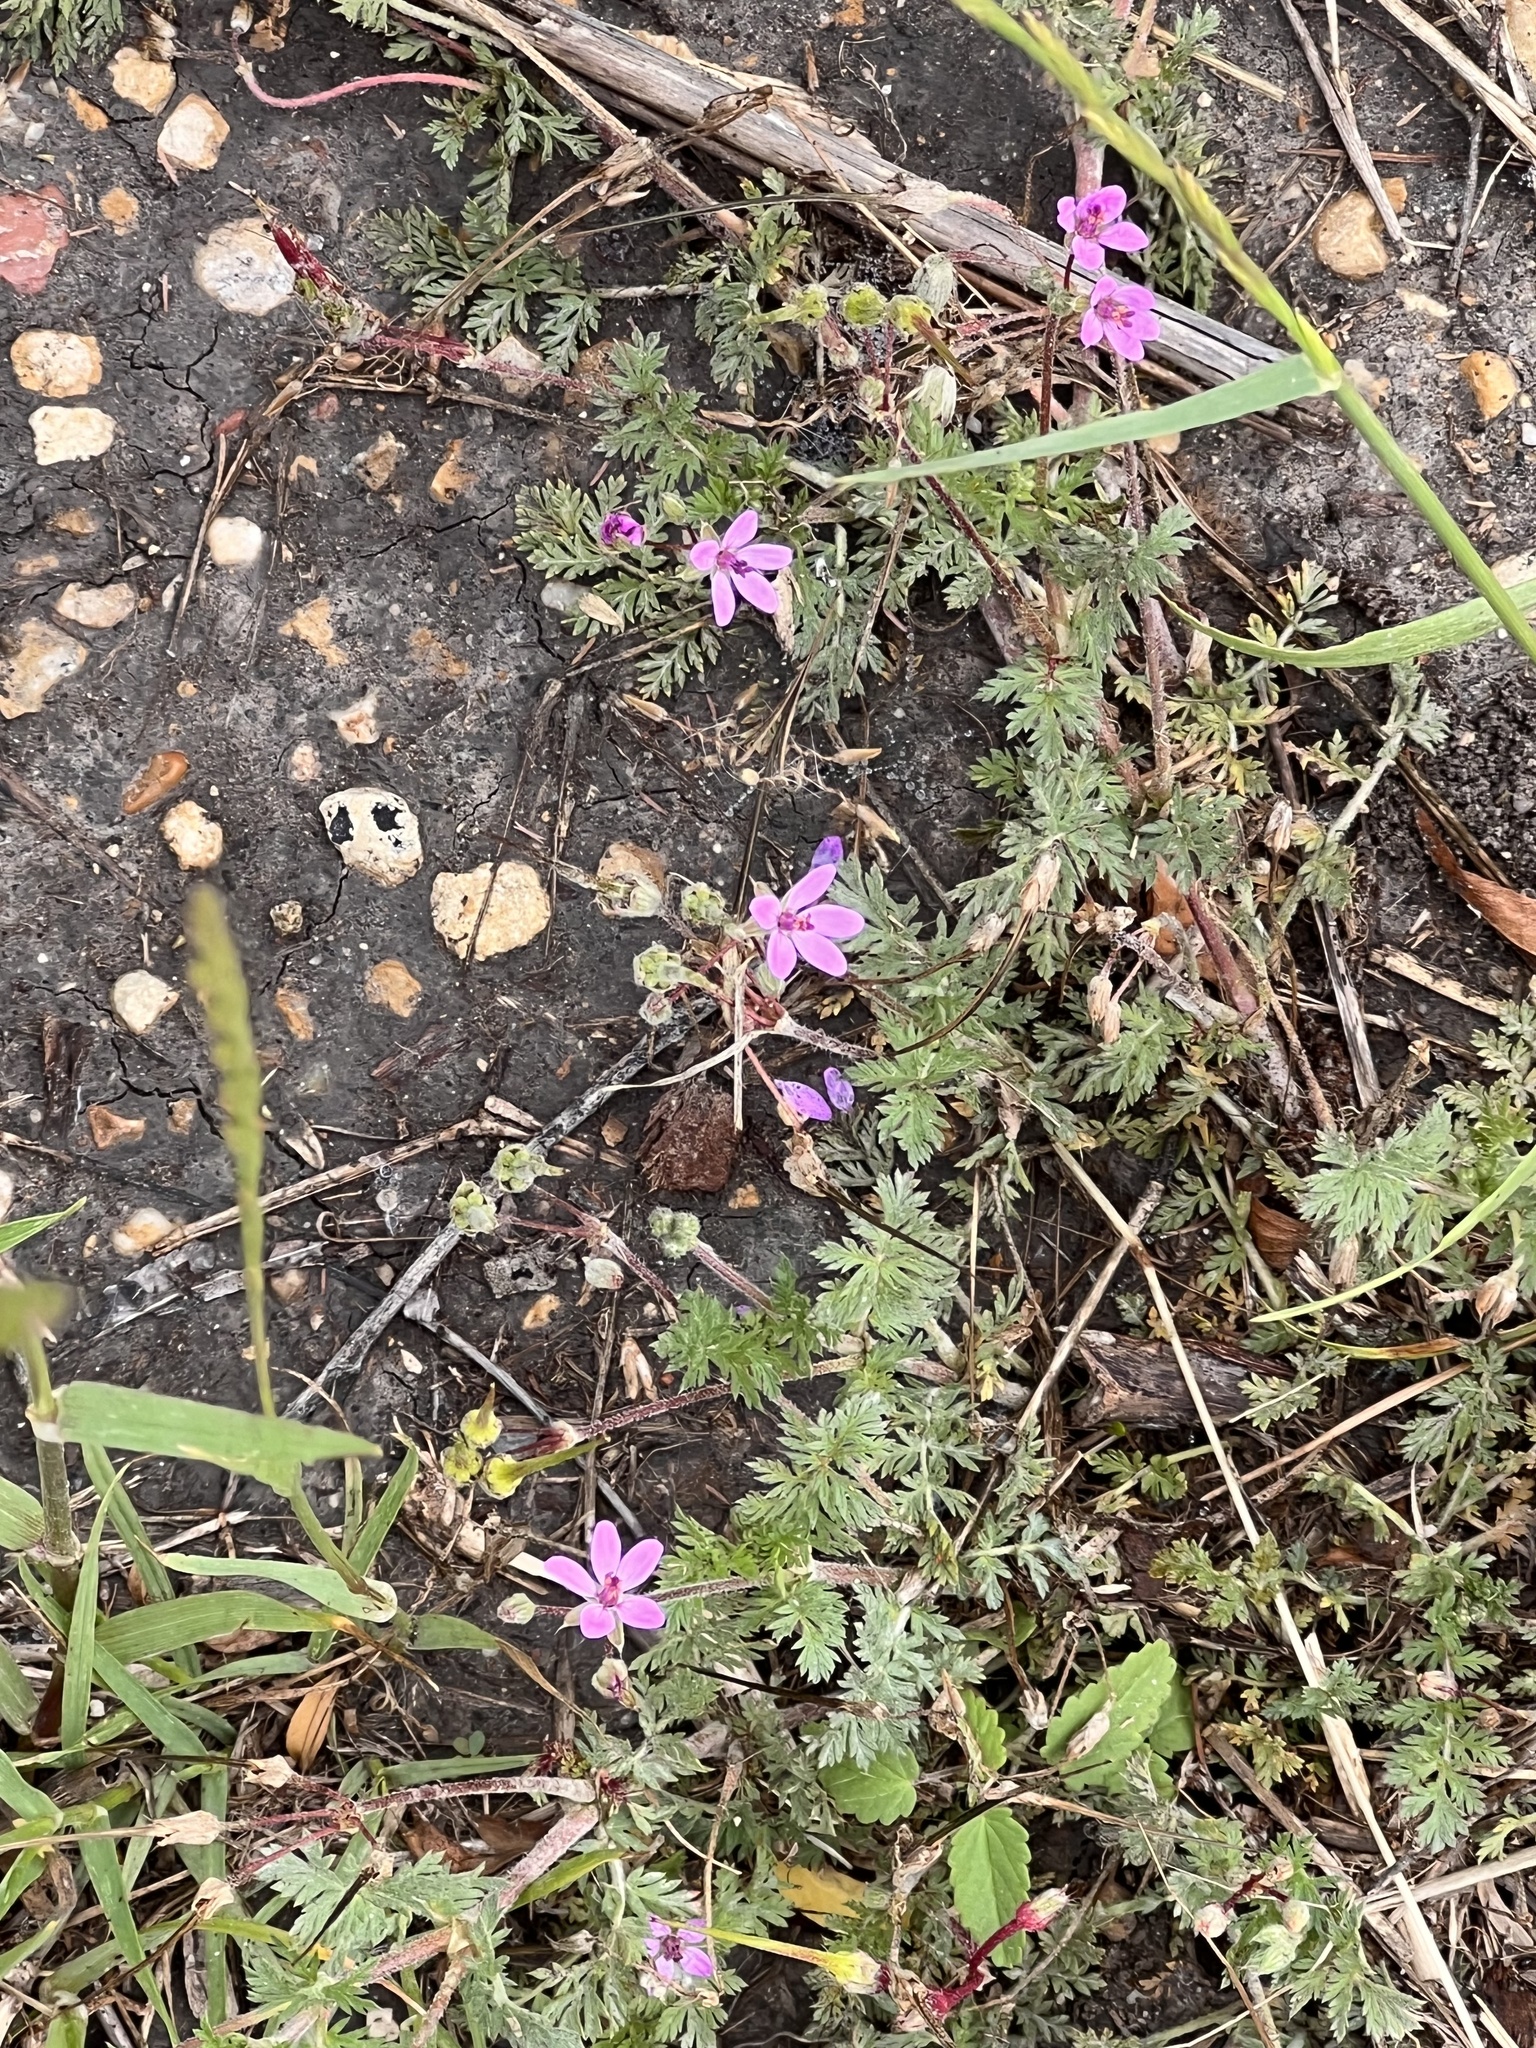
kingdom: Plantae
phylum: Tracheophyta
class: Magnoliopsida
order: Geraniales
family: Geraniaceae
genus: Erodium
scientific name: Erodium cicutarium
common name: Common stork's-bill
